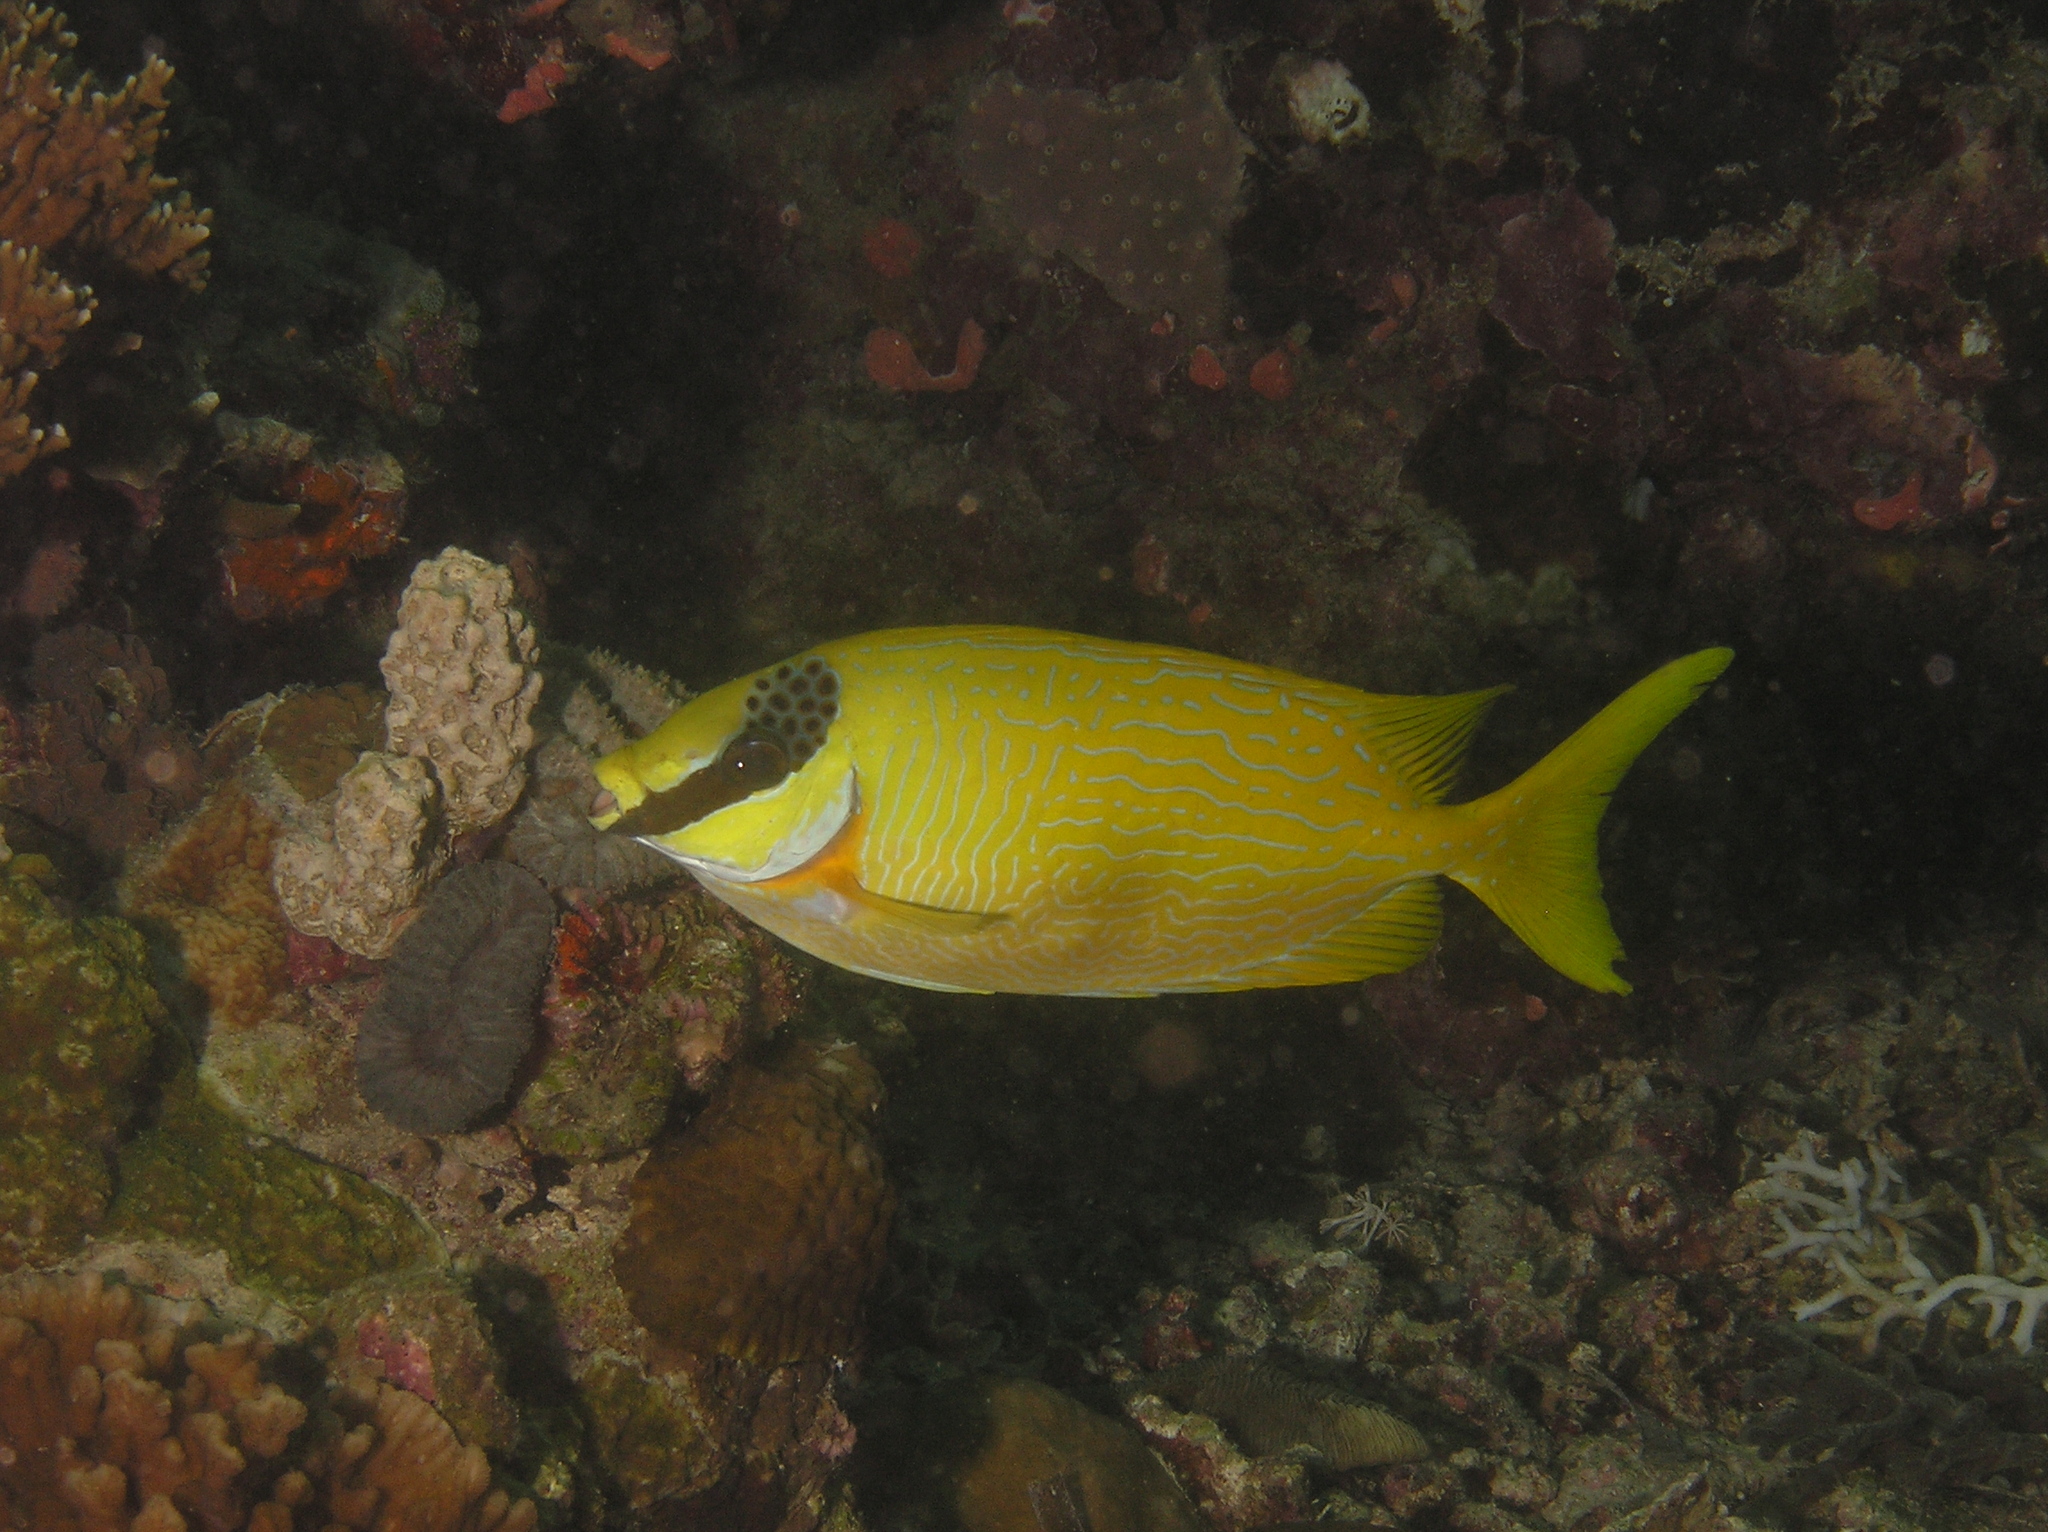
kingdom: Animalia
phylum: Chordata
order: Perciformes
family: Siganidae
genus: Siganus
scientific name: Siganus puellus
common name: Masked rabbitfish
